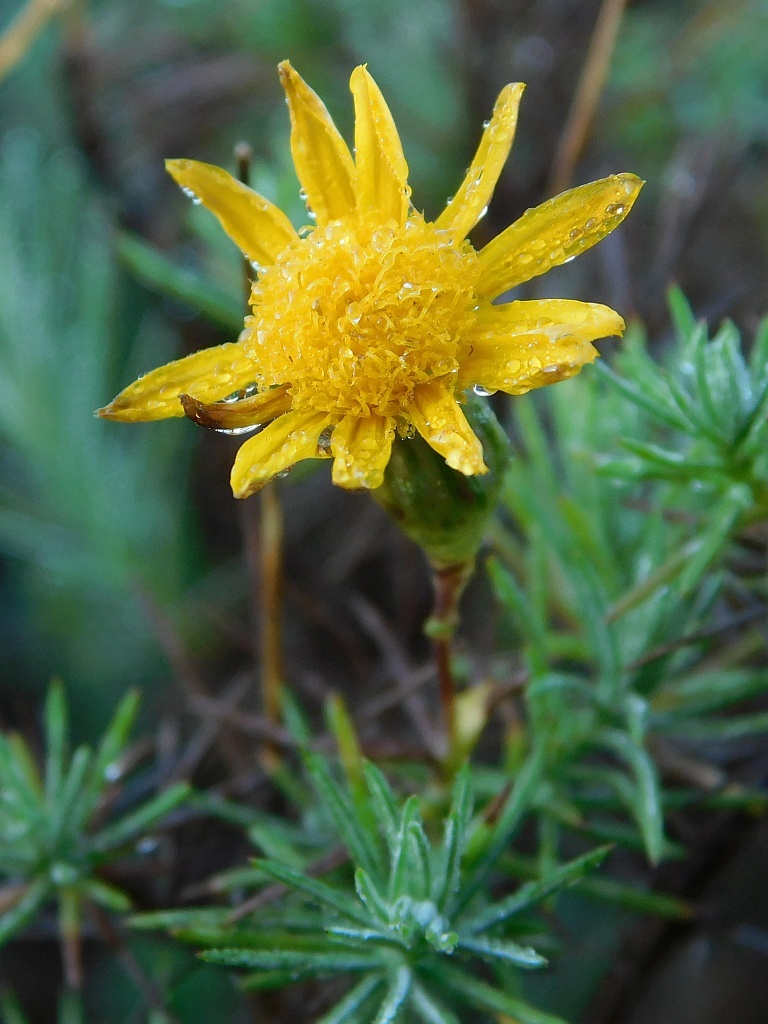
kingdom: Plantae
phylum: Tracheophyta
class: Magnoliopsida
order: Asterales
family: Asteraceae
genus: Leysera
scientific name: Leysera gnaphalodes
